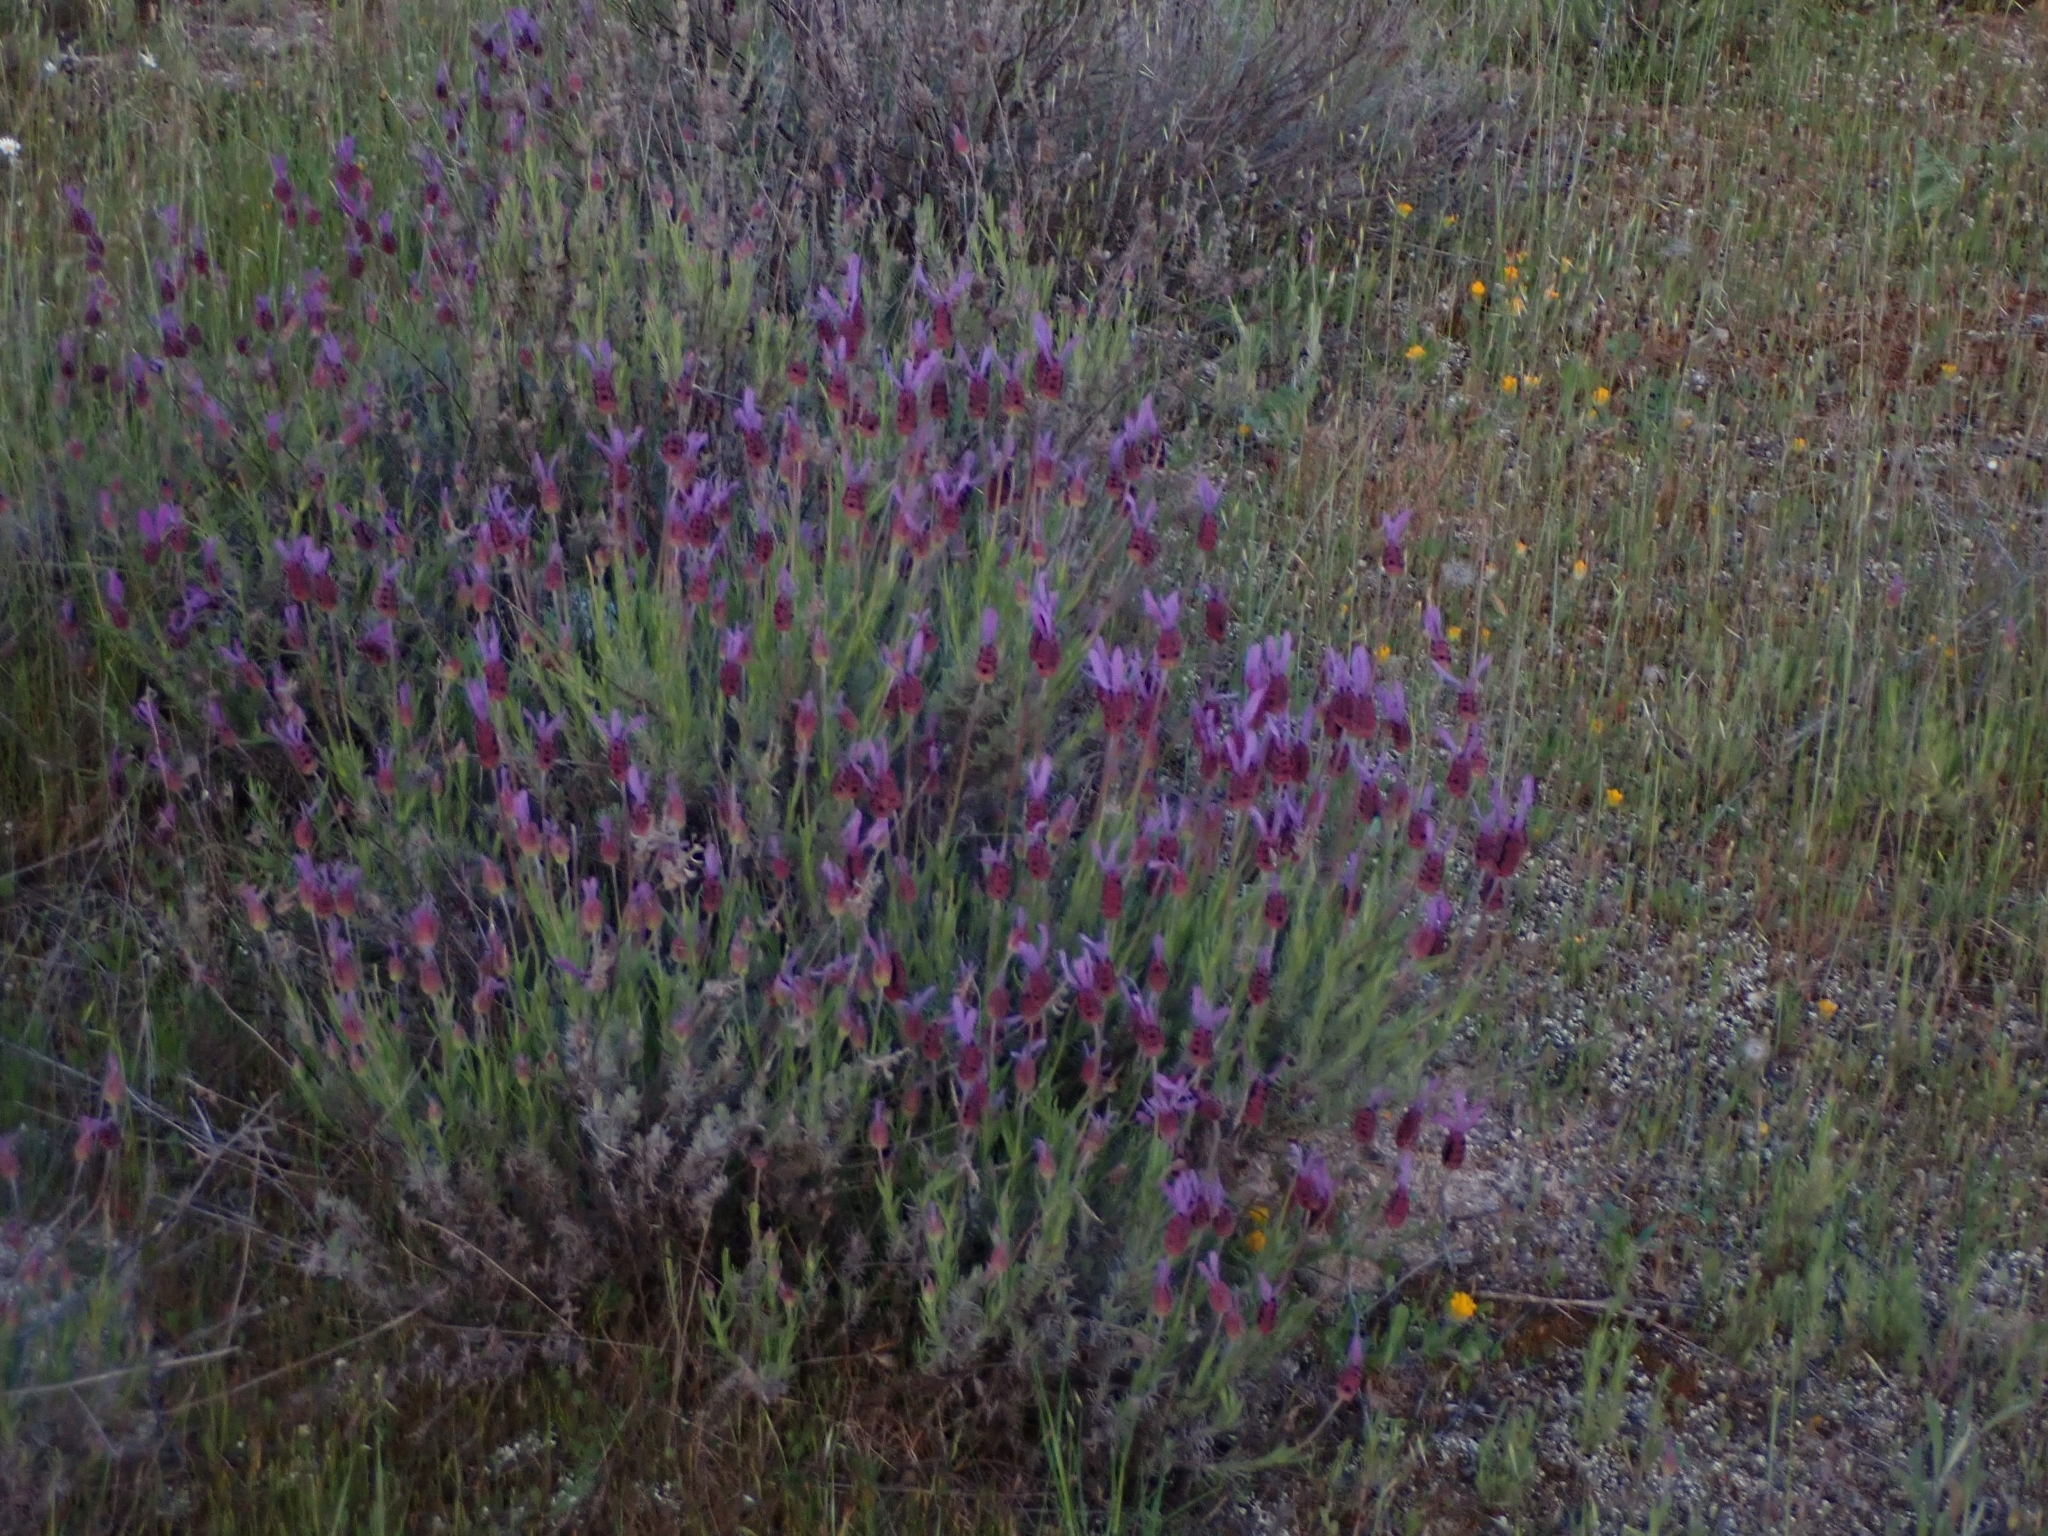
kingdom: Plantae
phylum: Tracheophyta
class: Magnoliopsida
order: Lamiales
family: Lamiaceae
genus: Lavandula
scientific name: Lavandula pedunculata
